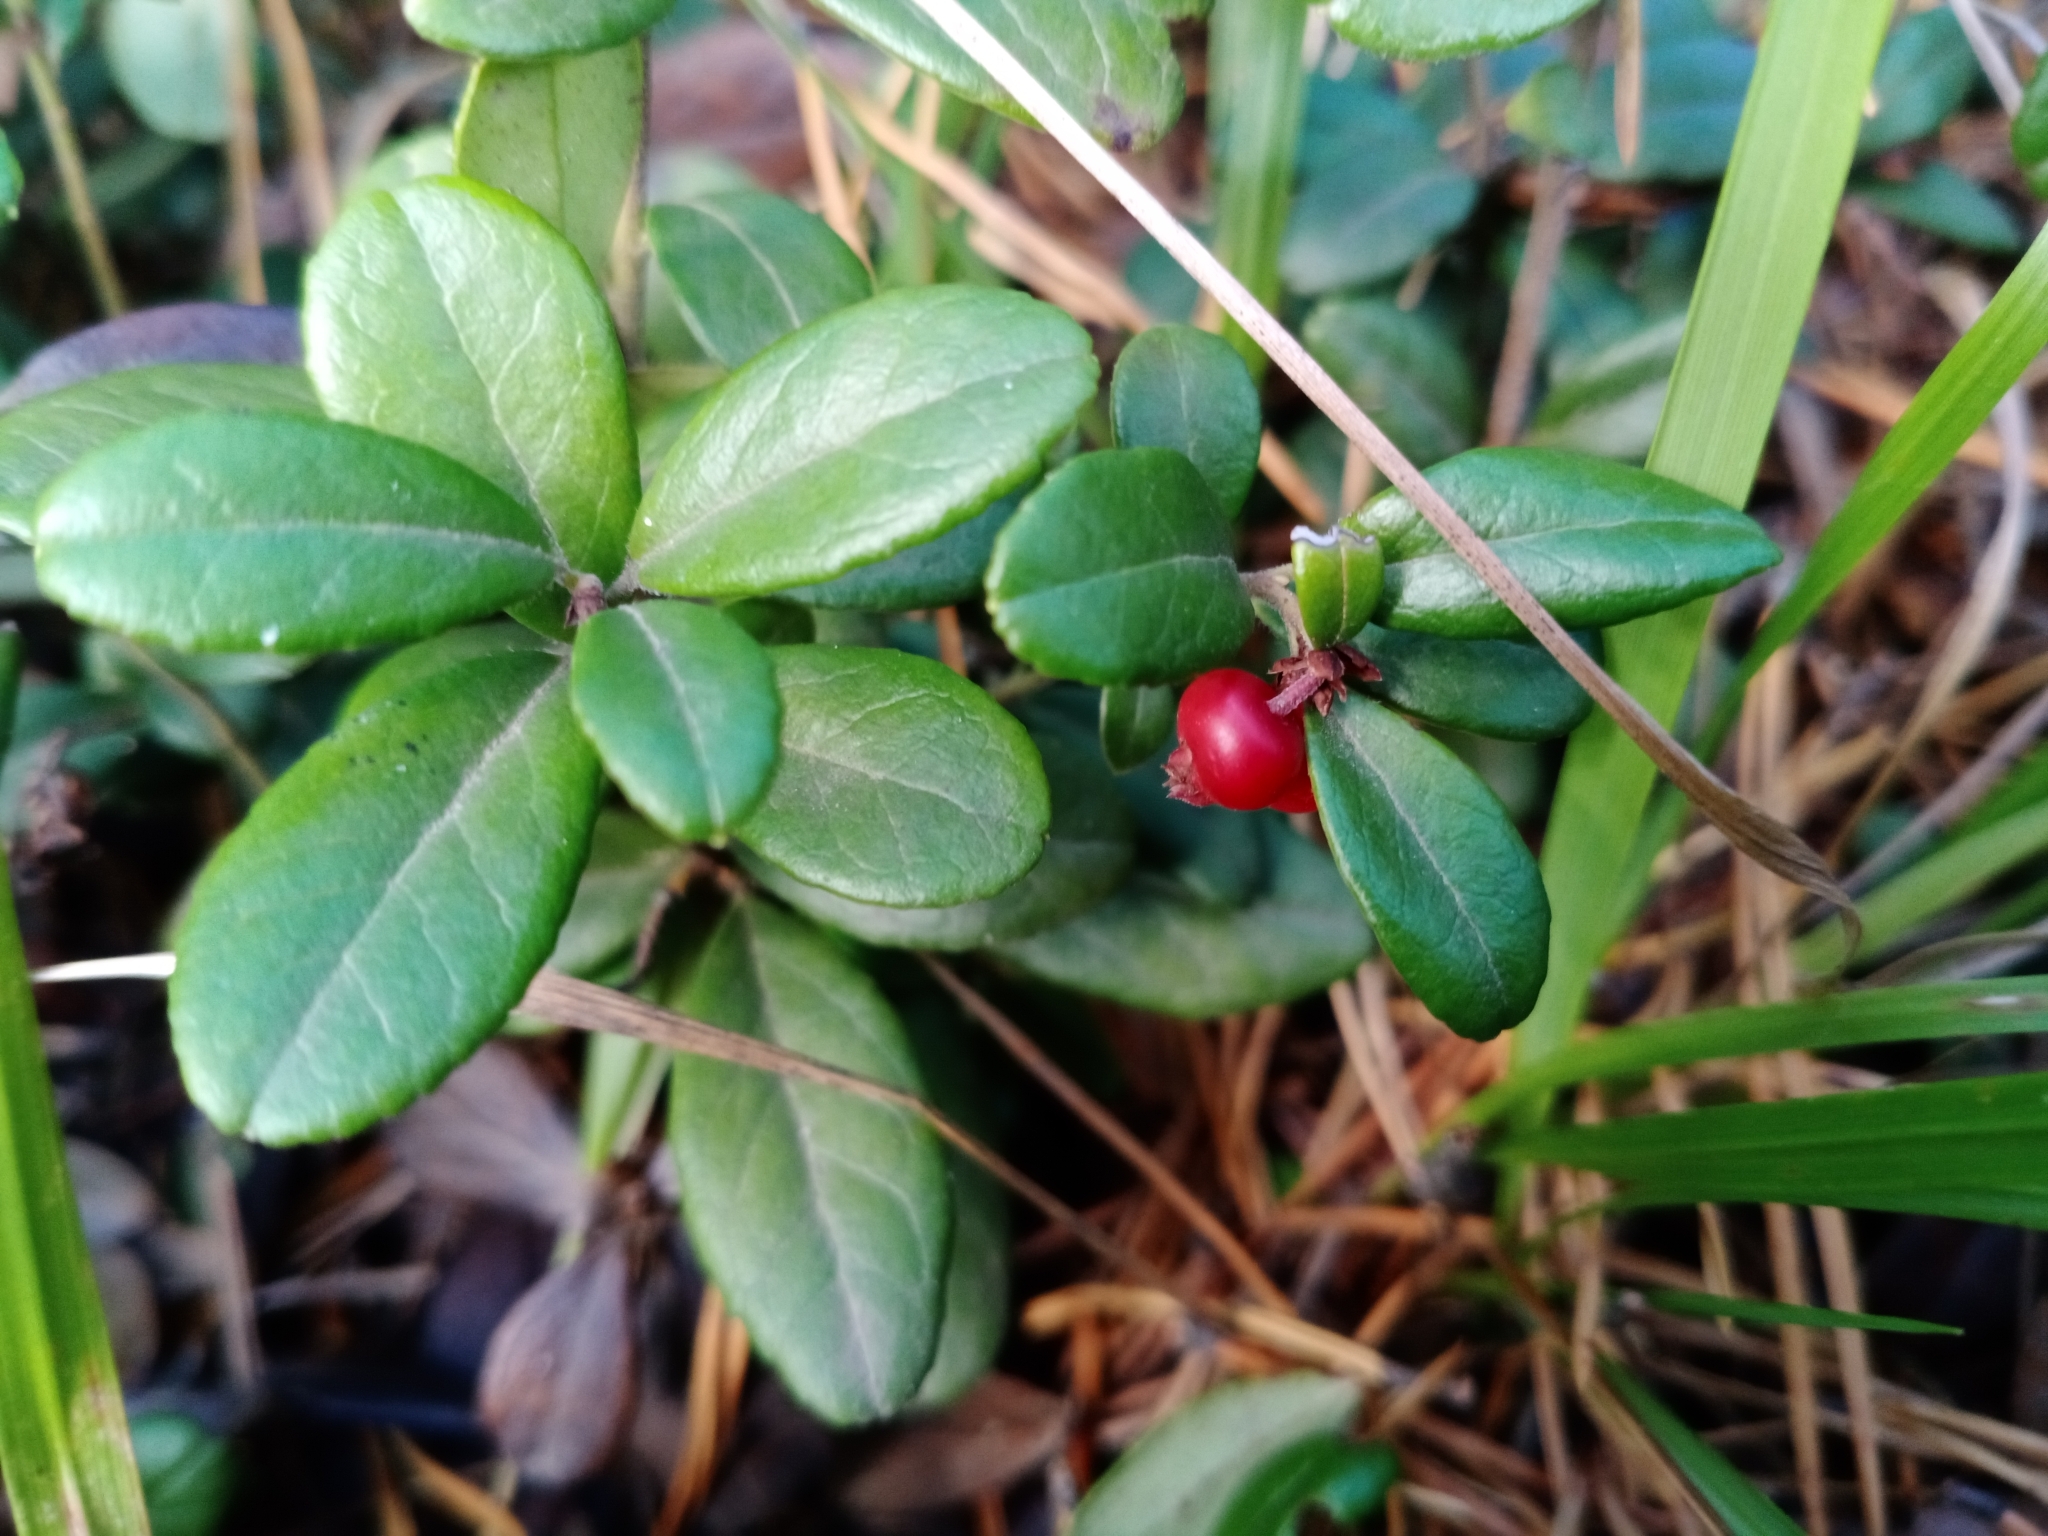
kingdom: Plantae
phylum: Tracheophyta
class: Magnoliopsida
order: Ericales
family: Ericaceae
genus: Vaccinium
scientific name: Vaccinium vitis-idaea
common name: Cowberry
